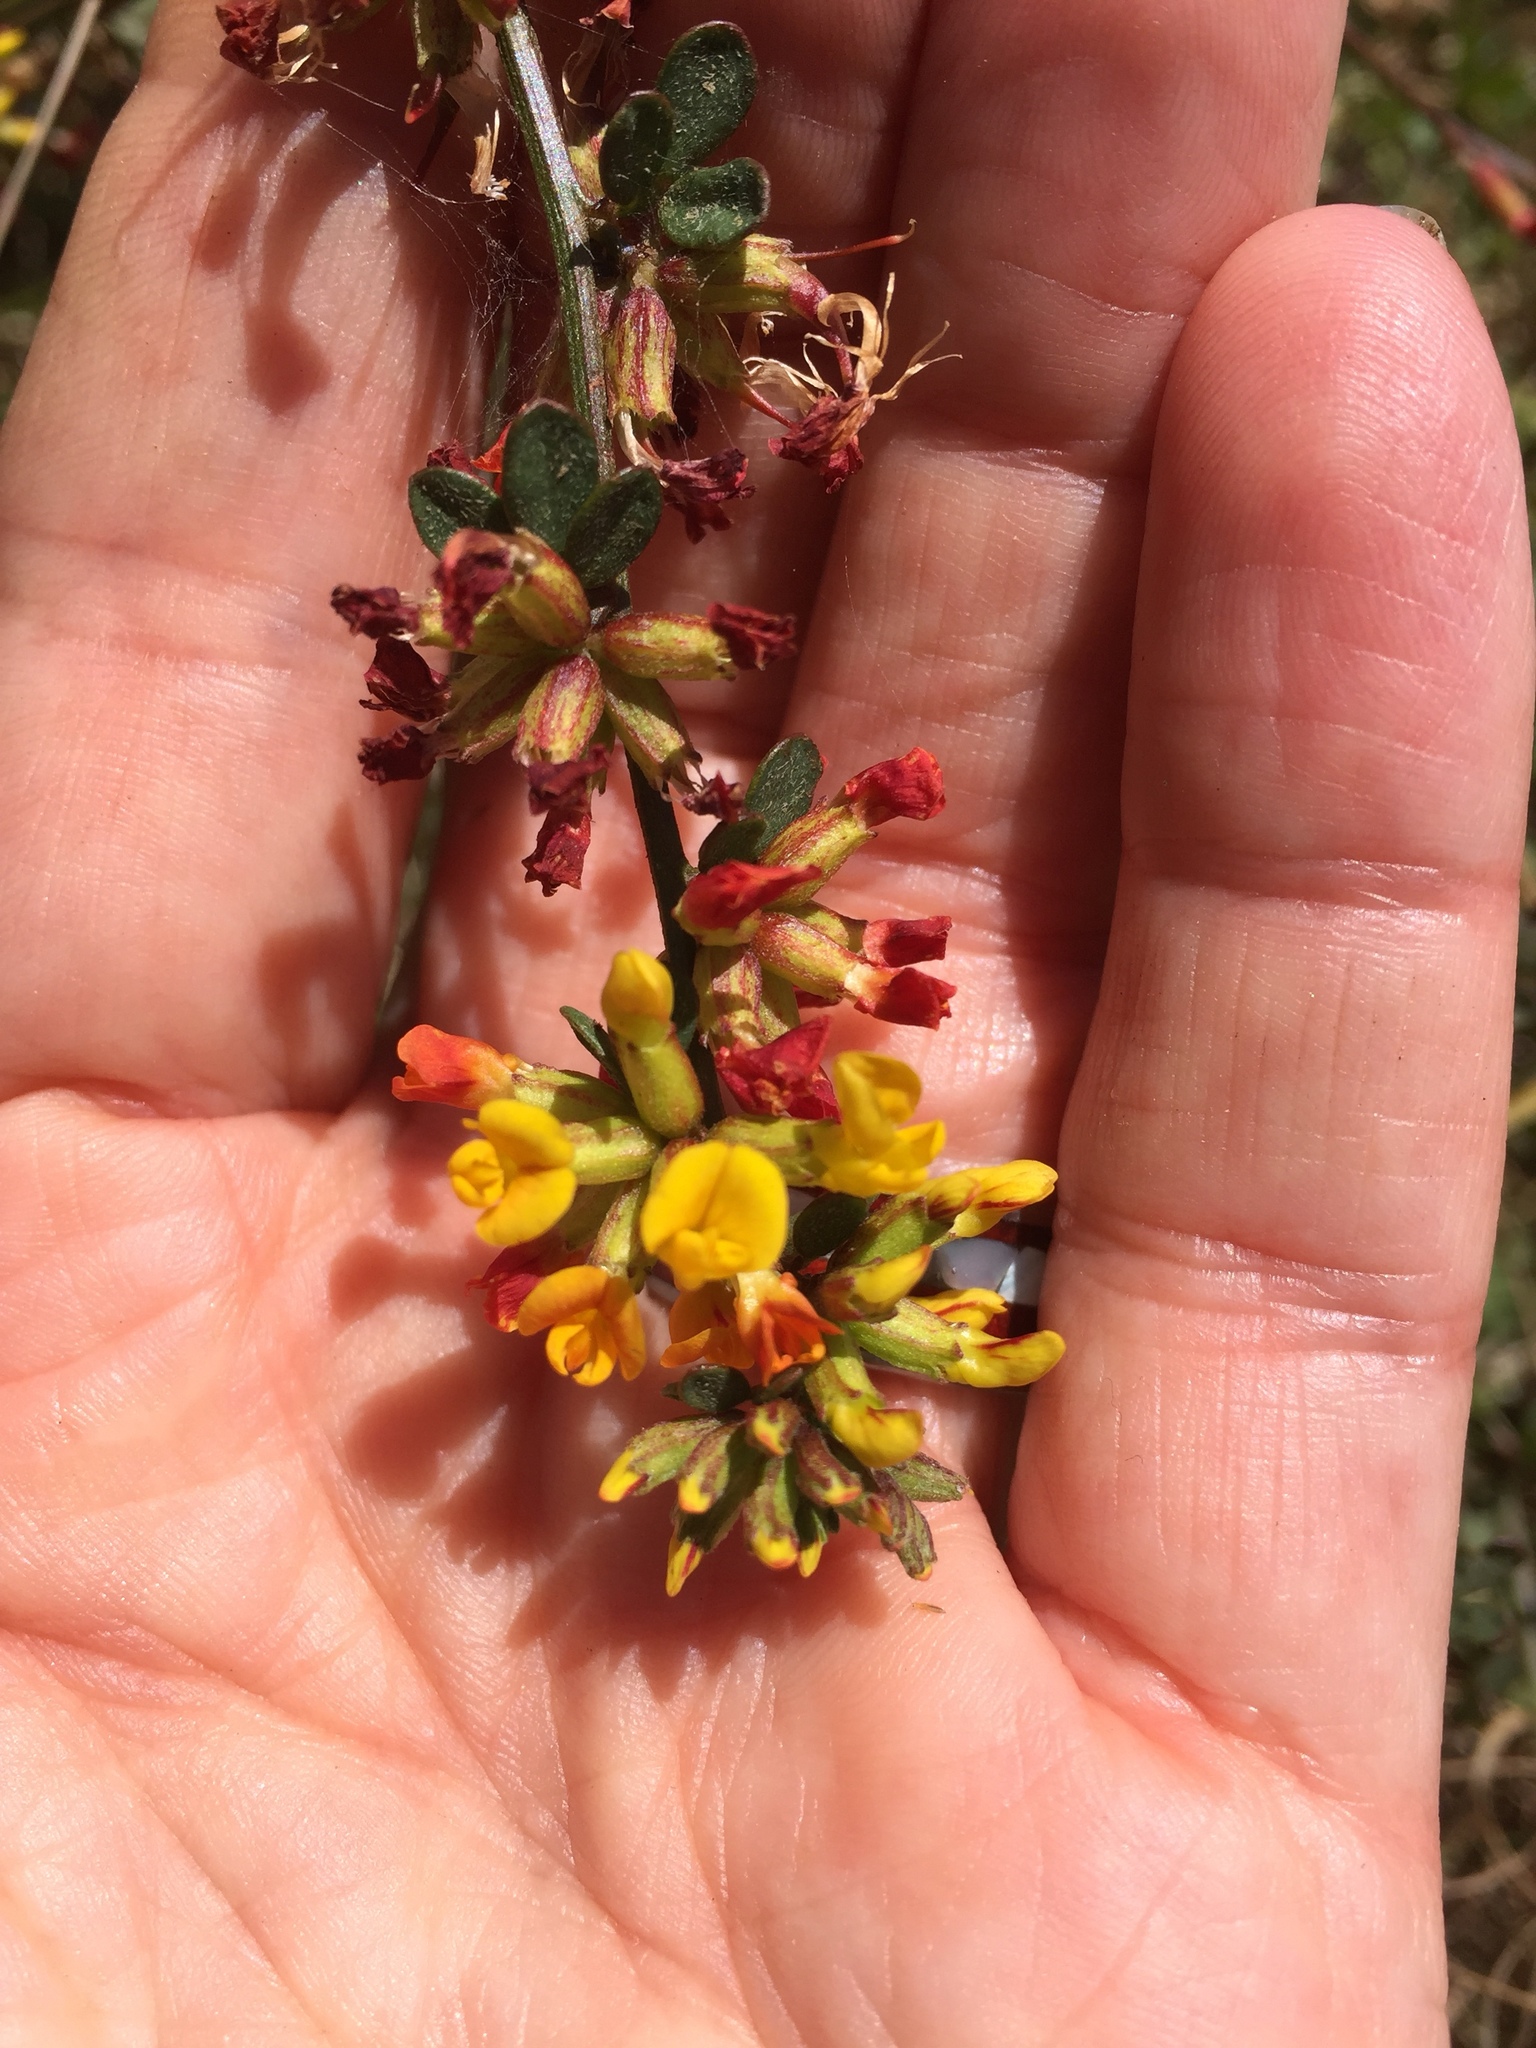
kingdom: Plantae
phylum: Tracheophyta
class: Magnoliopsida
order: Fabales
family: Fabaceae
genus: Acmispon
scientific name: Acmispon junceus
